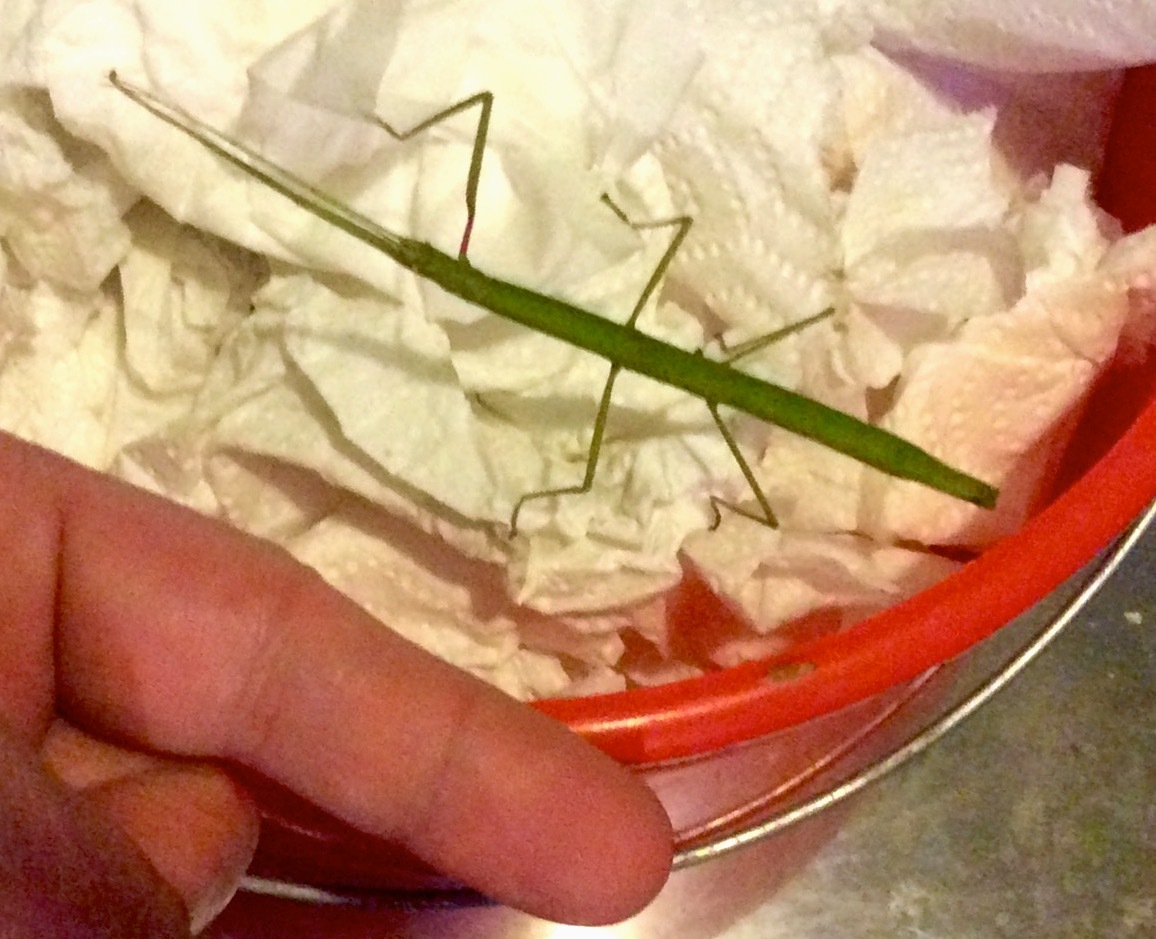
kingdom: Animalia
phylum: Arthropoda
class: Insecta
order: Phasmida
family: Lonchodidae
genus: Carausius
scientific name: Carausius morosus
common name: Indian stick insect
